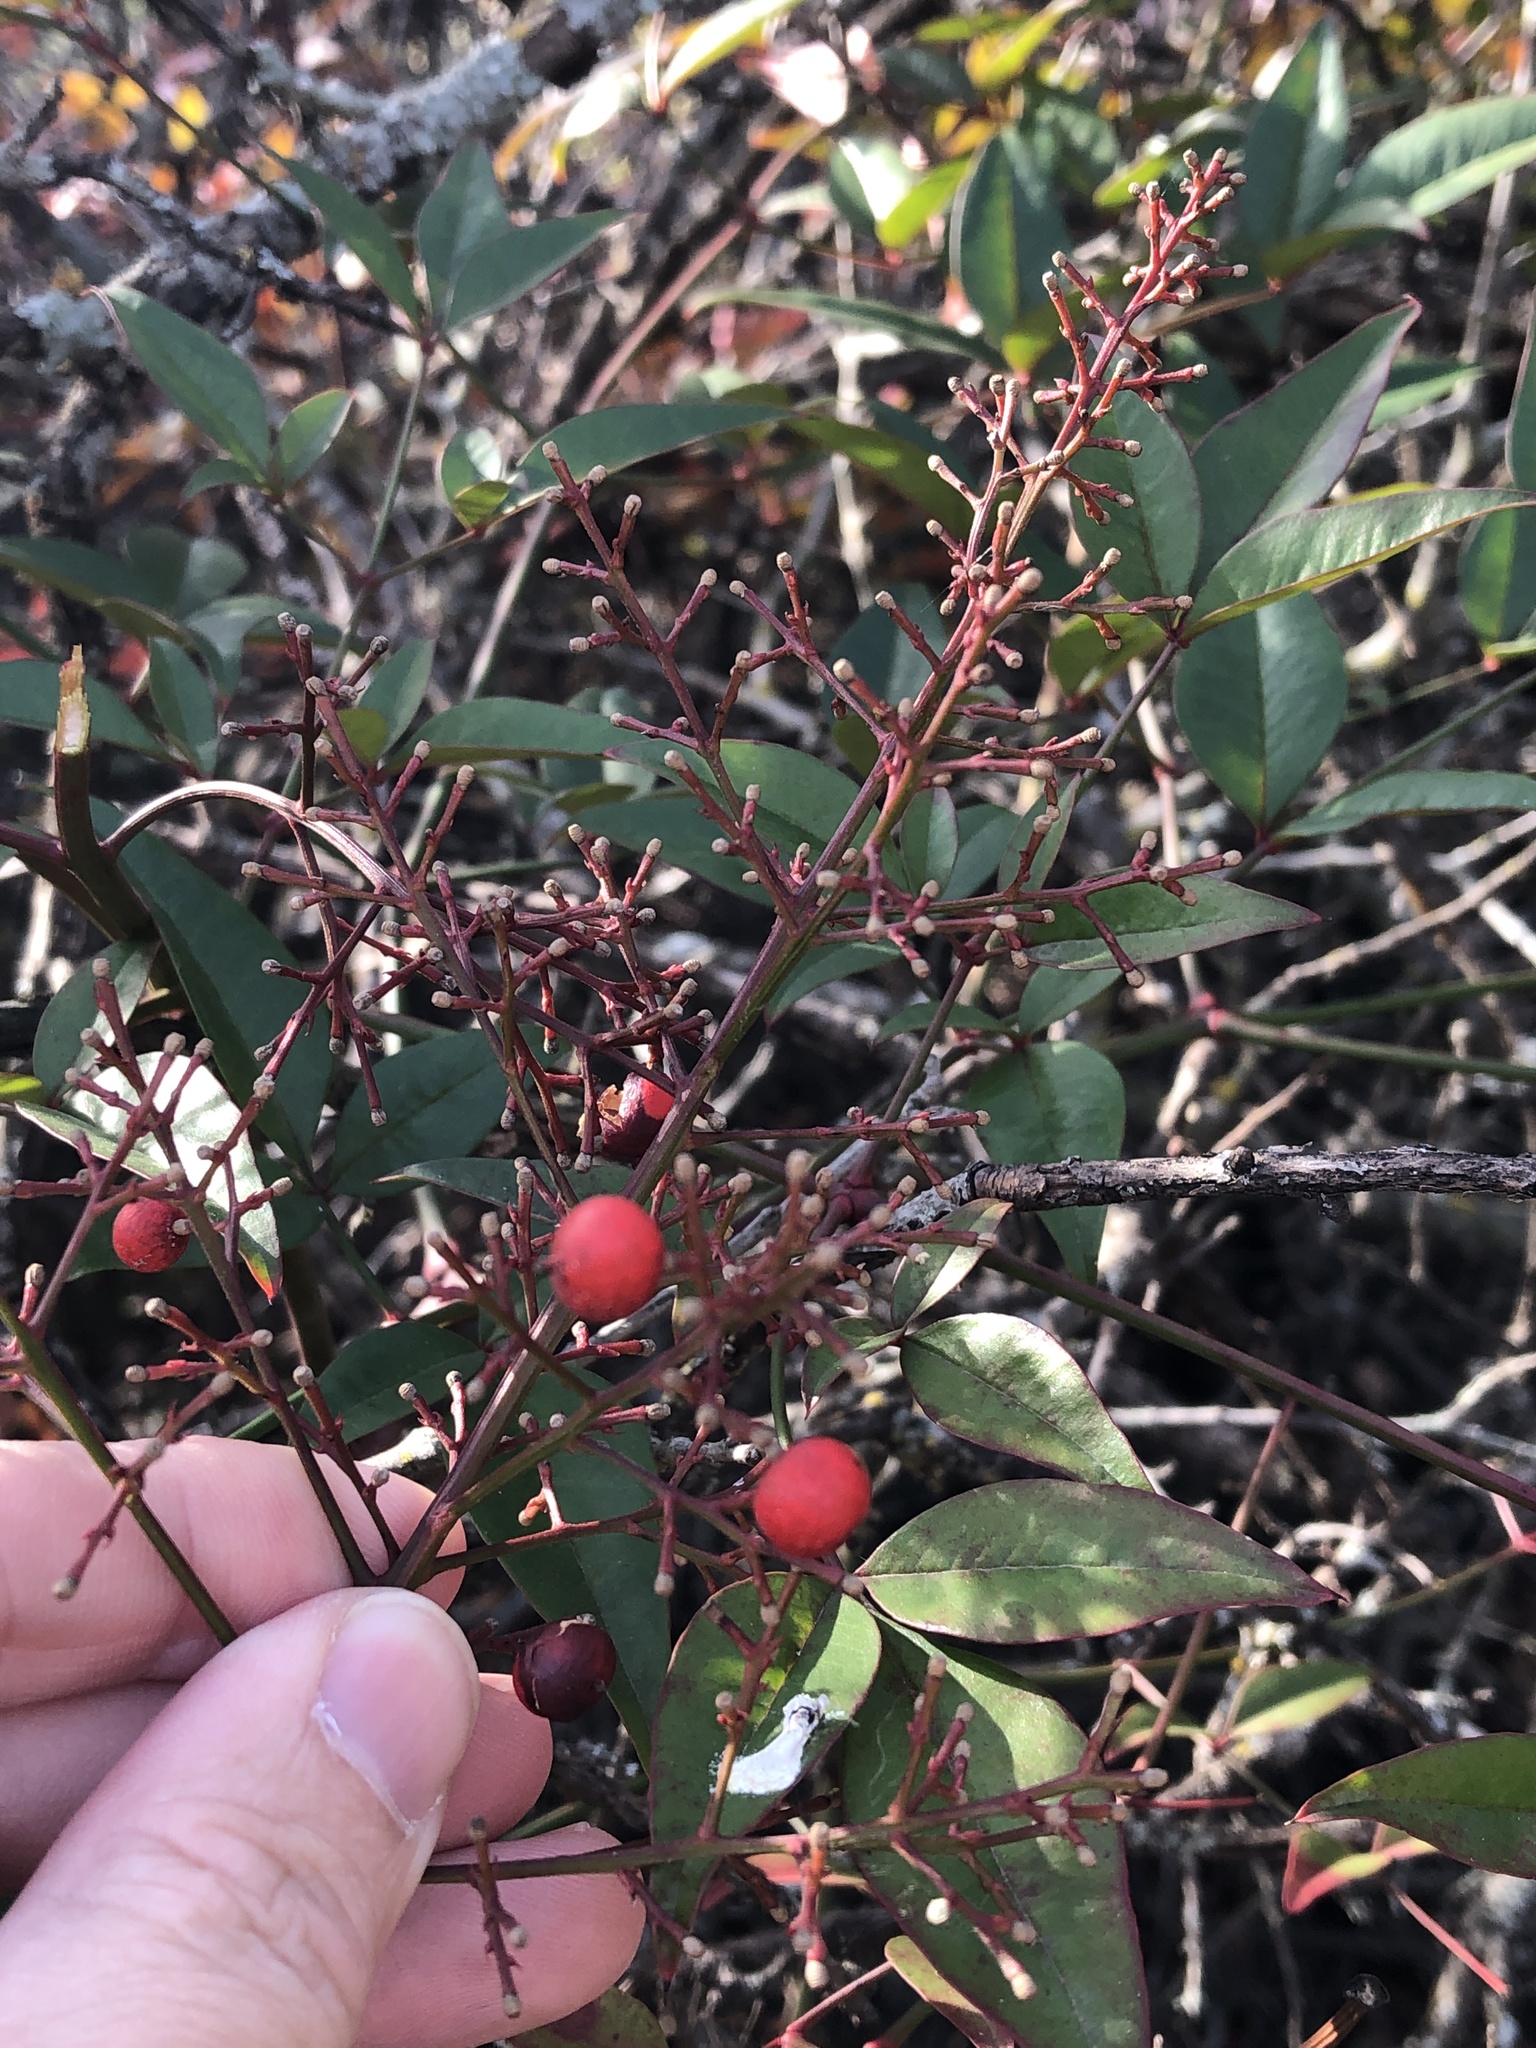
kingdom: Plantae
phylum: Tracheophyta
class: Magnoliopsida
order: Ranunculales
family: Berberidaceae
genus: Nandina
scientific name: Nandina domestica
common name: Sacred bamboo
